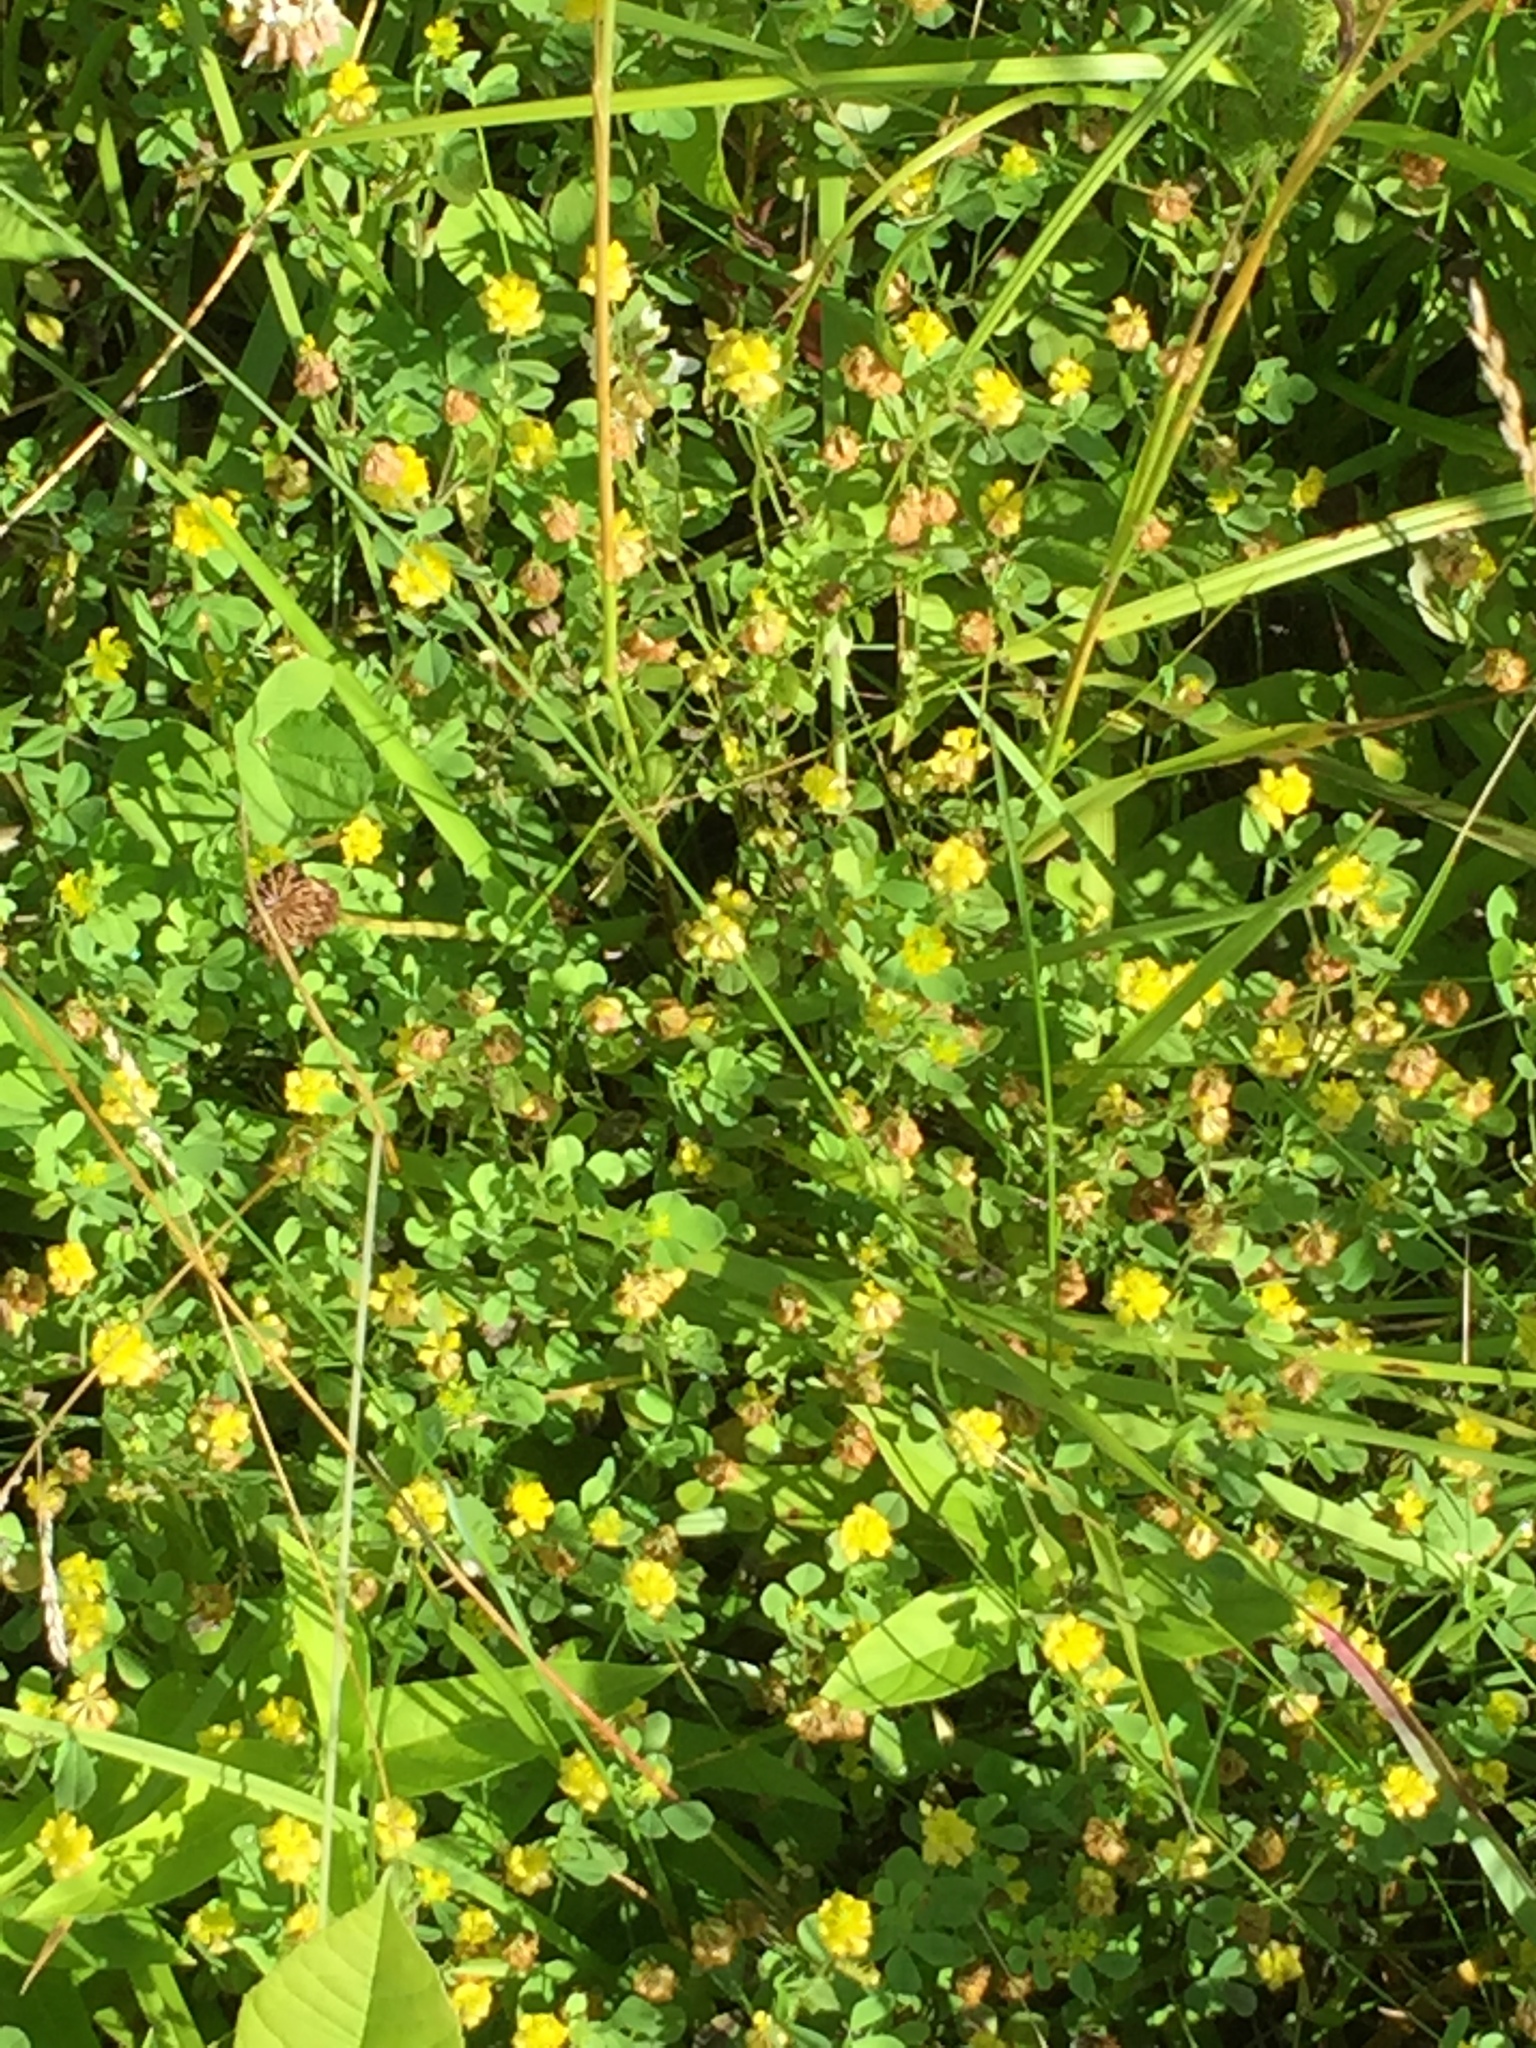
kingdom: Plantae
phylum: Tracheophyta
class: Magnoliopsida
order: Fabales
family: Fabaceae
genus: Trifolium
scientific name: Trifolium campestre
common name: Field clover
